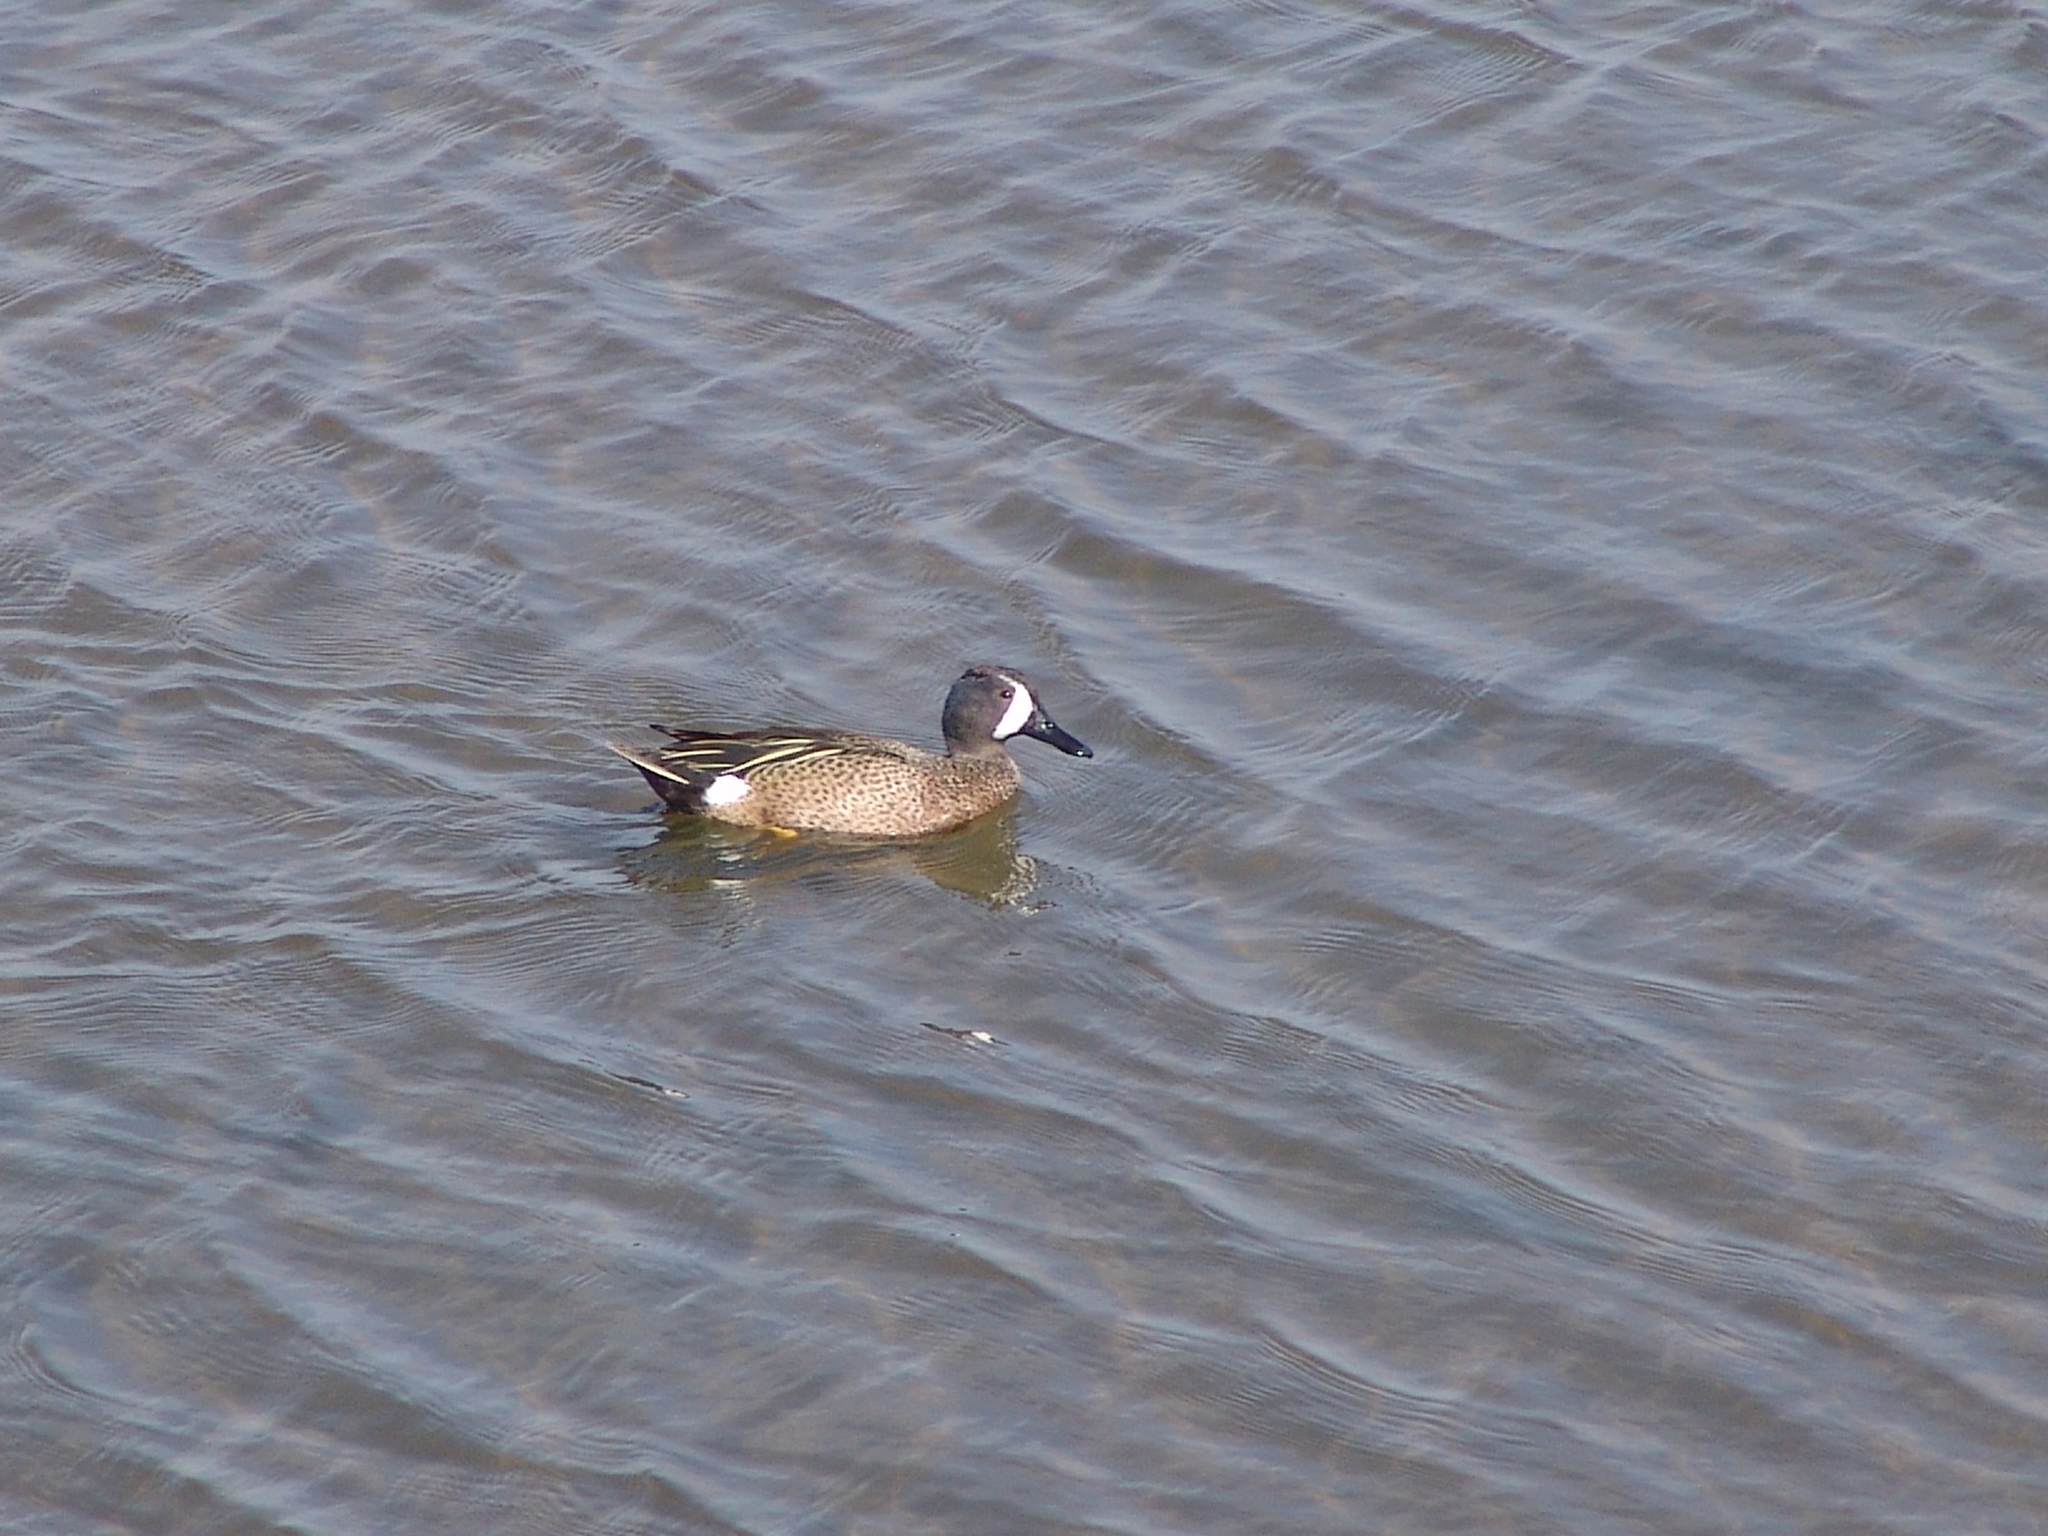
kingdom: Animalia
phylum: Chordata
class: Aves
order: Anseriformes
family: Anatidae
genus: Spatula
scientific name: Spatula discors
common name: Blue-winged teal
